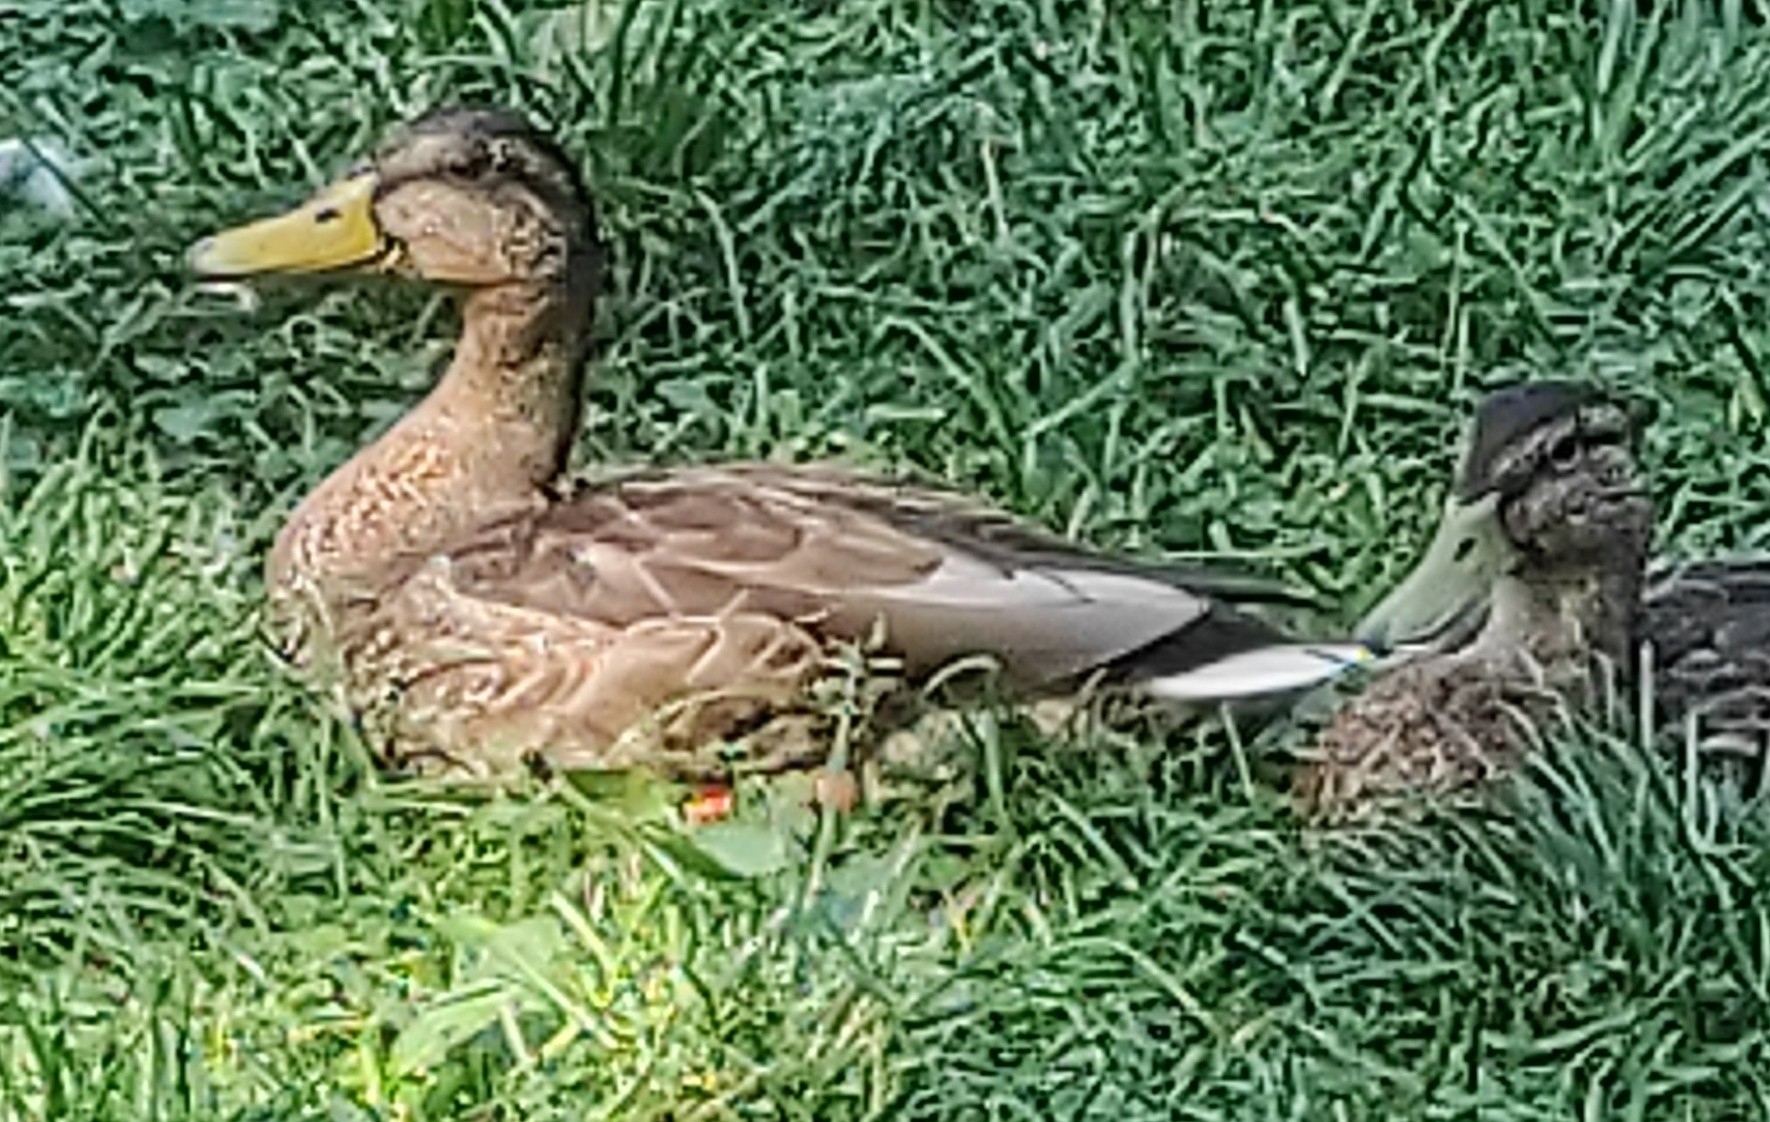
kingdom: Animalia
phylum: Chordata
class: Aves
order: Anseriformes
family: Anatidae
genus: Anas
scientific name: Anas platyrhynchos
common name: Mallard
